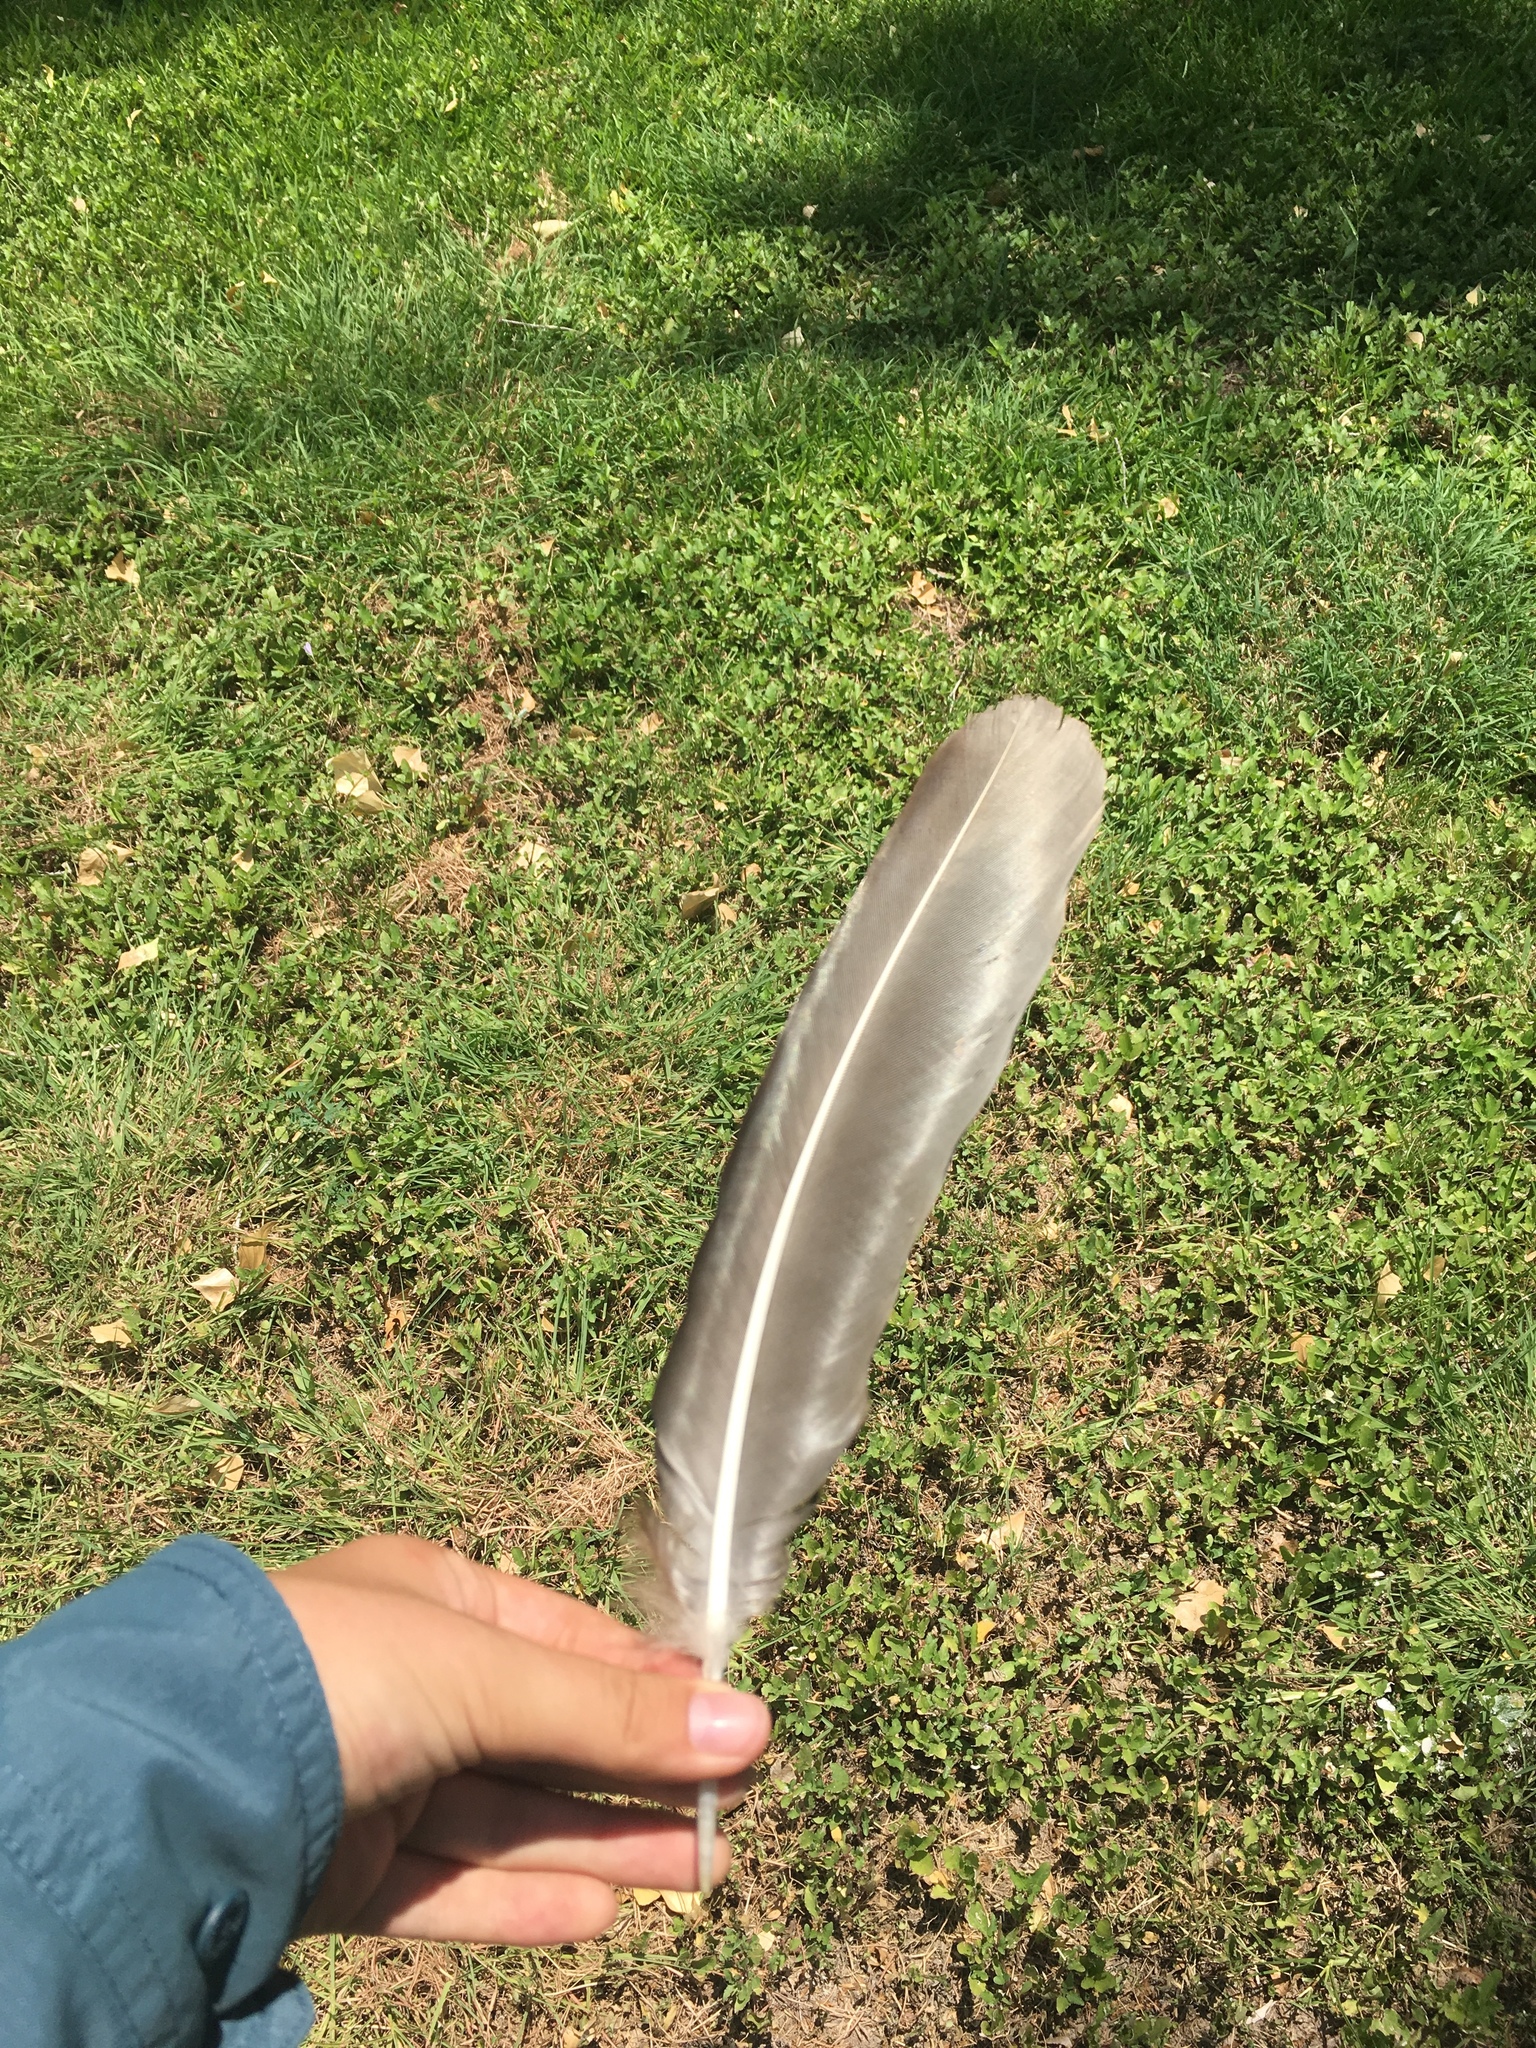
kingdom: Animalia
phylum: Chordata
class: Aves
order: Accipitriformes
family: Cathartidae
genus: Cathartes
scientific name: Cathartes aura
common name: Turkey vulture
